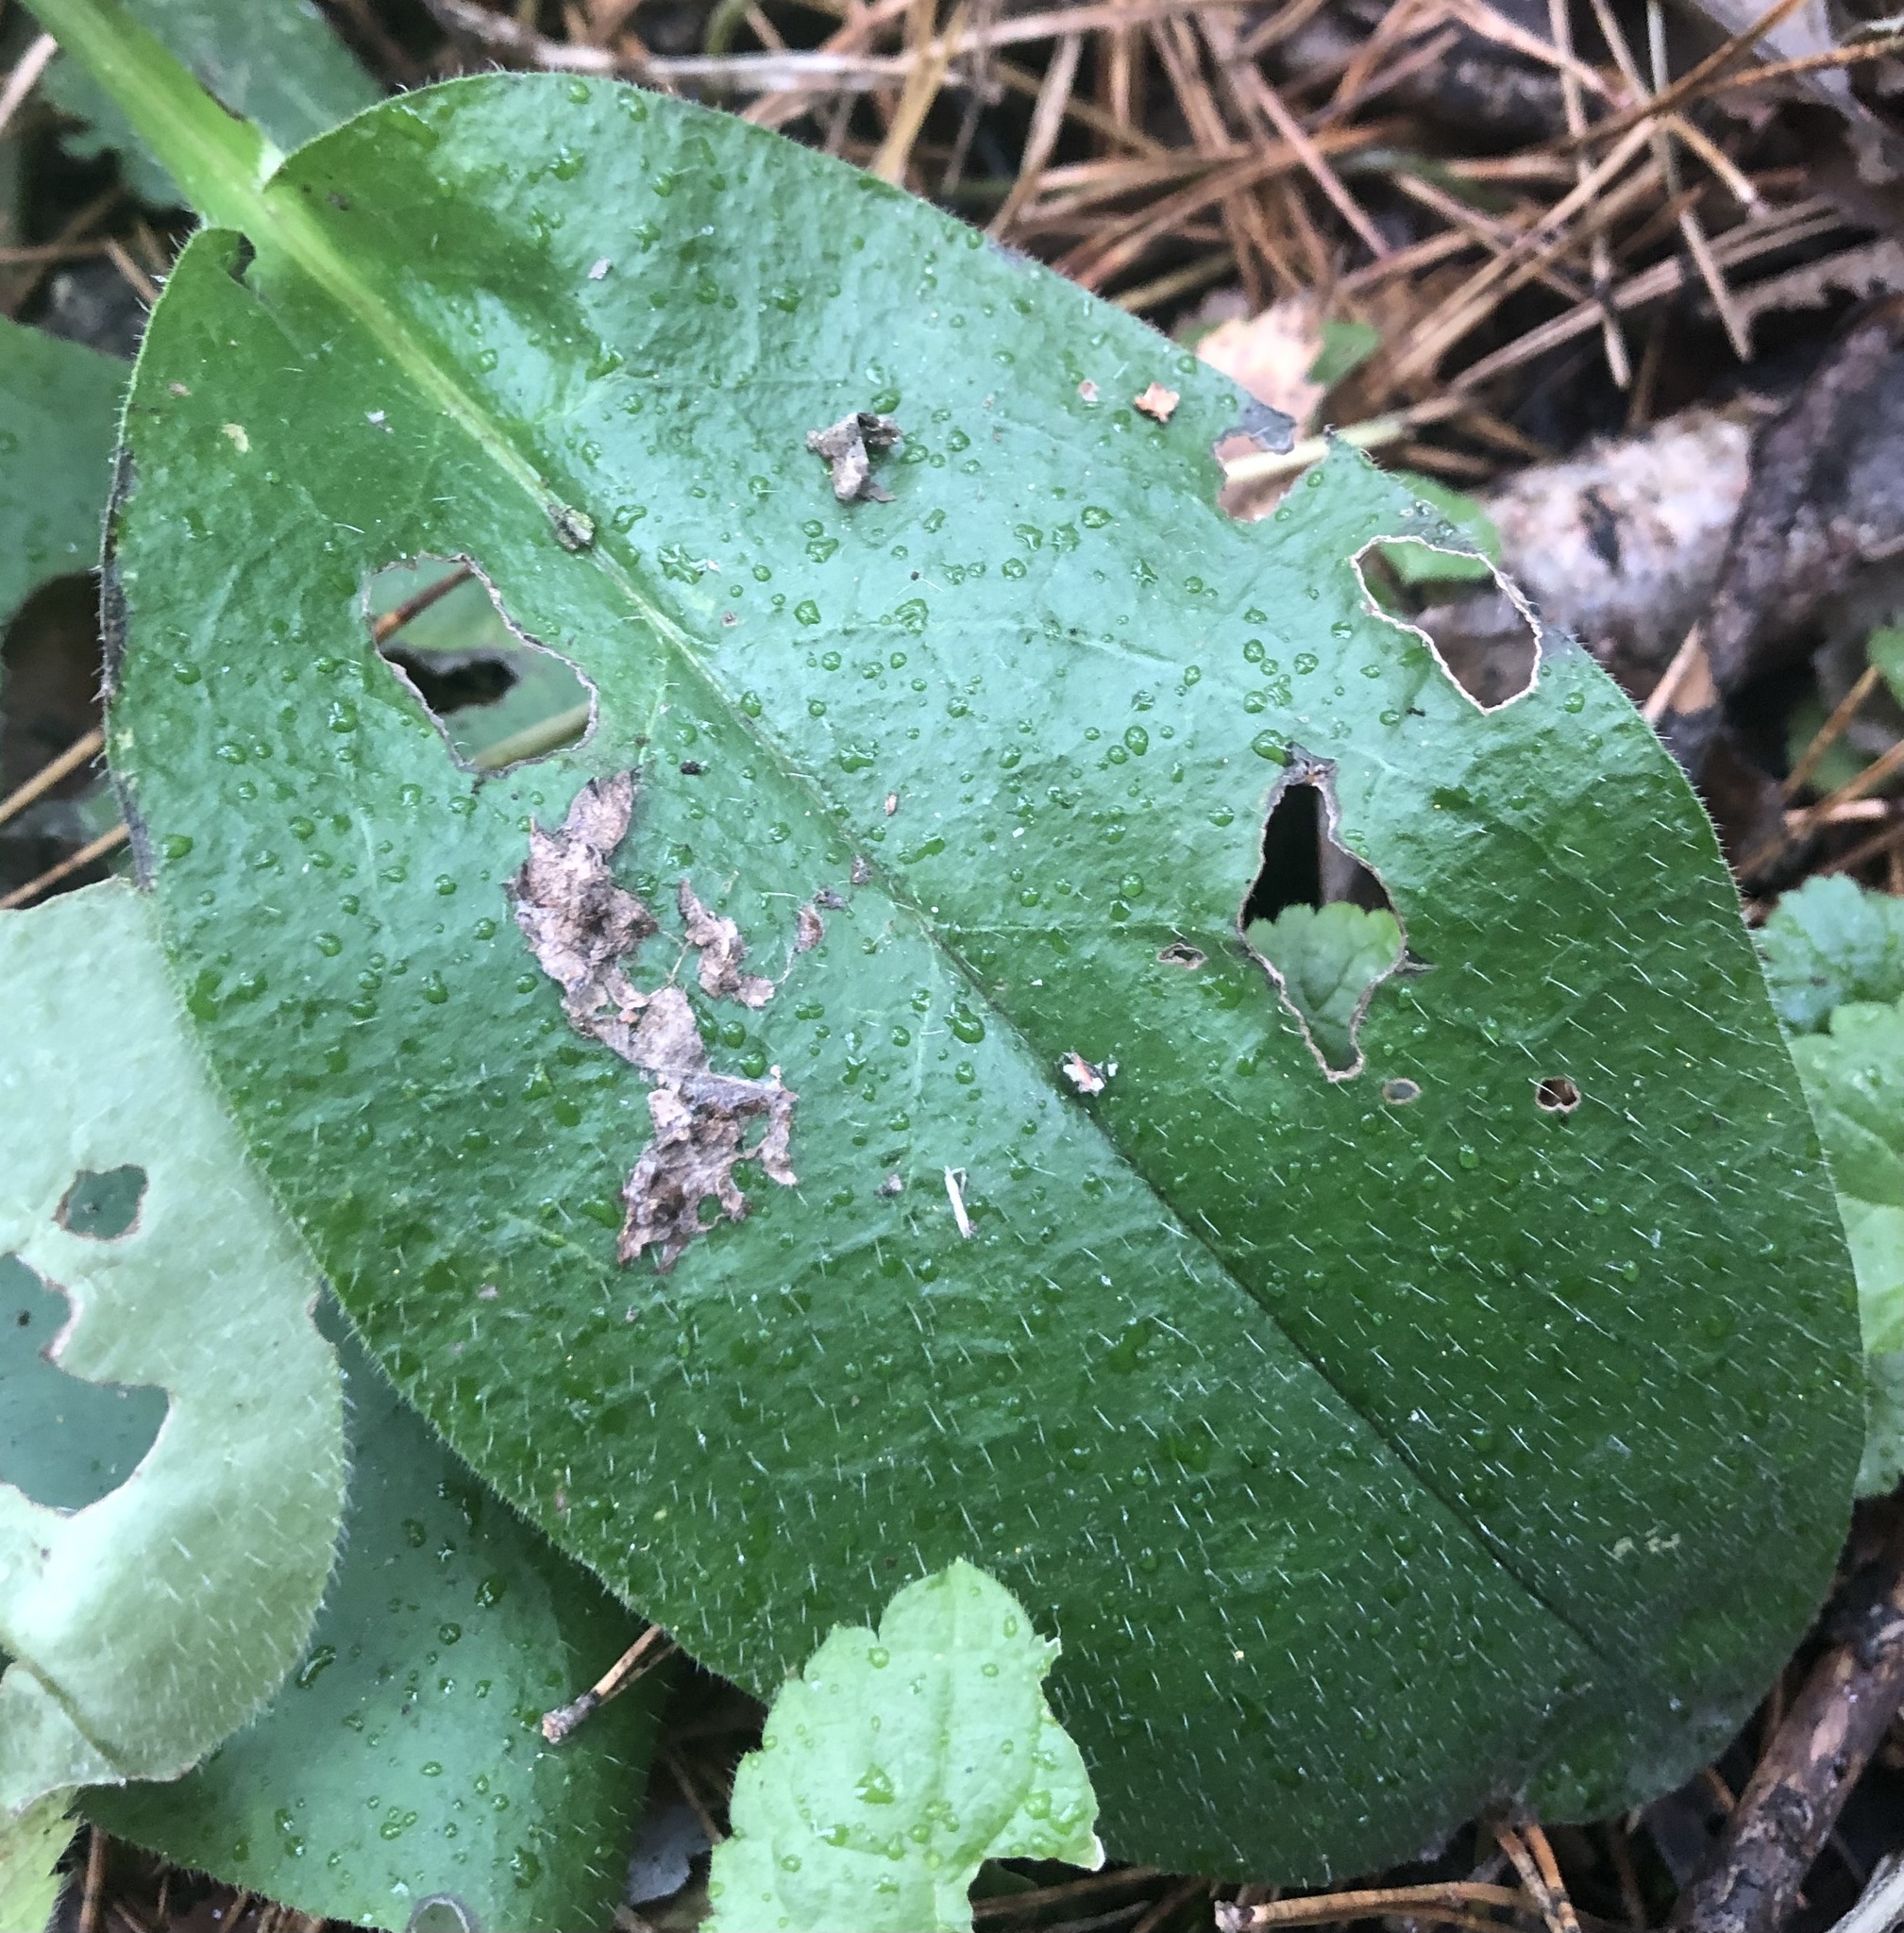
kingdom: Plantae
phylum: Tracheophyta
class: Magnoliopsida
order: Boraginales
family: Boraginaceae
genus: Pulmonaria
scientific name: Pulmonaria obscura
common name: Suffolk lungwort
